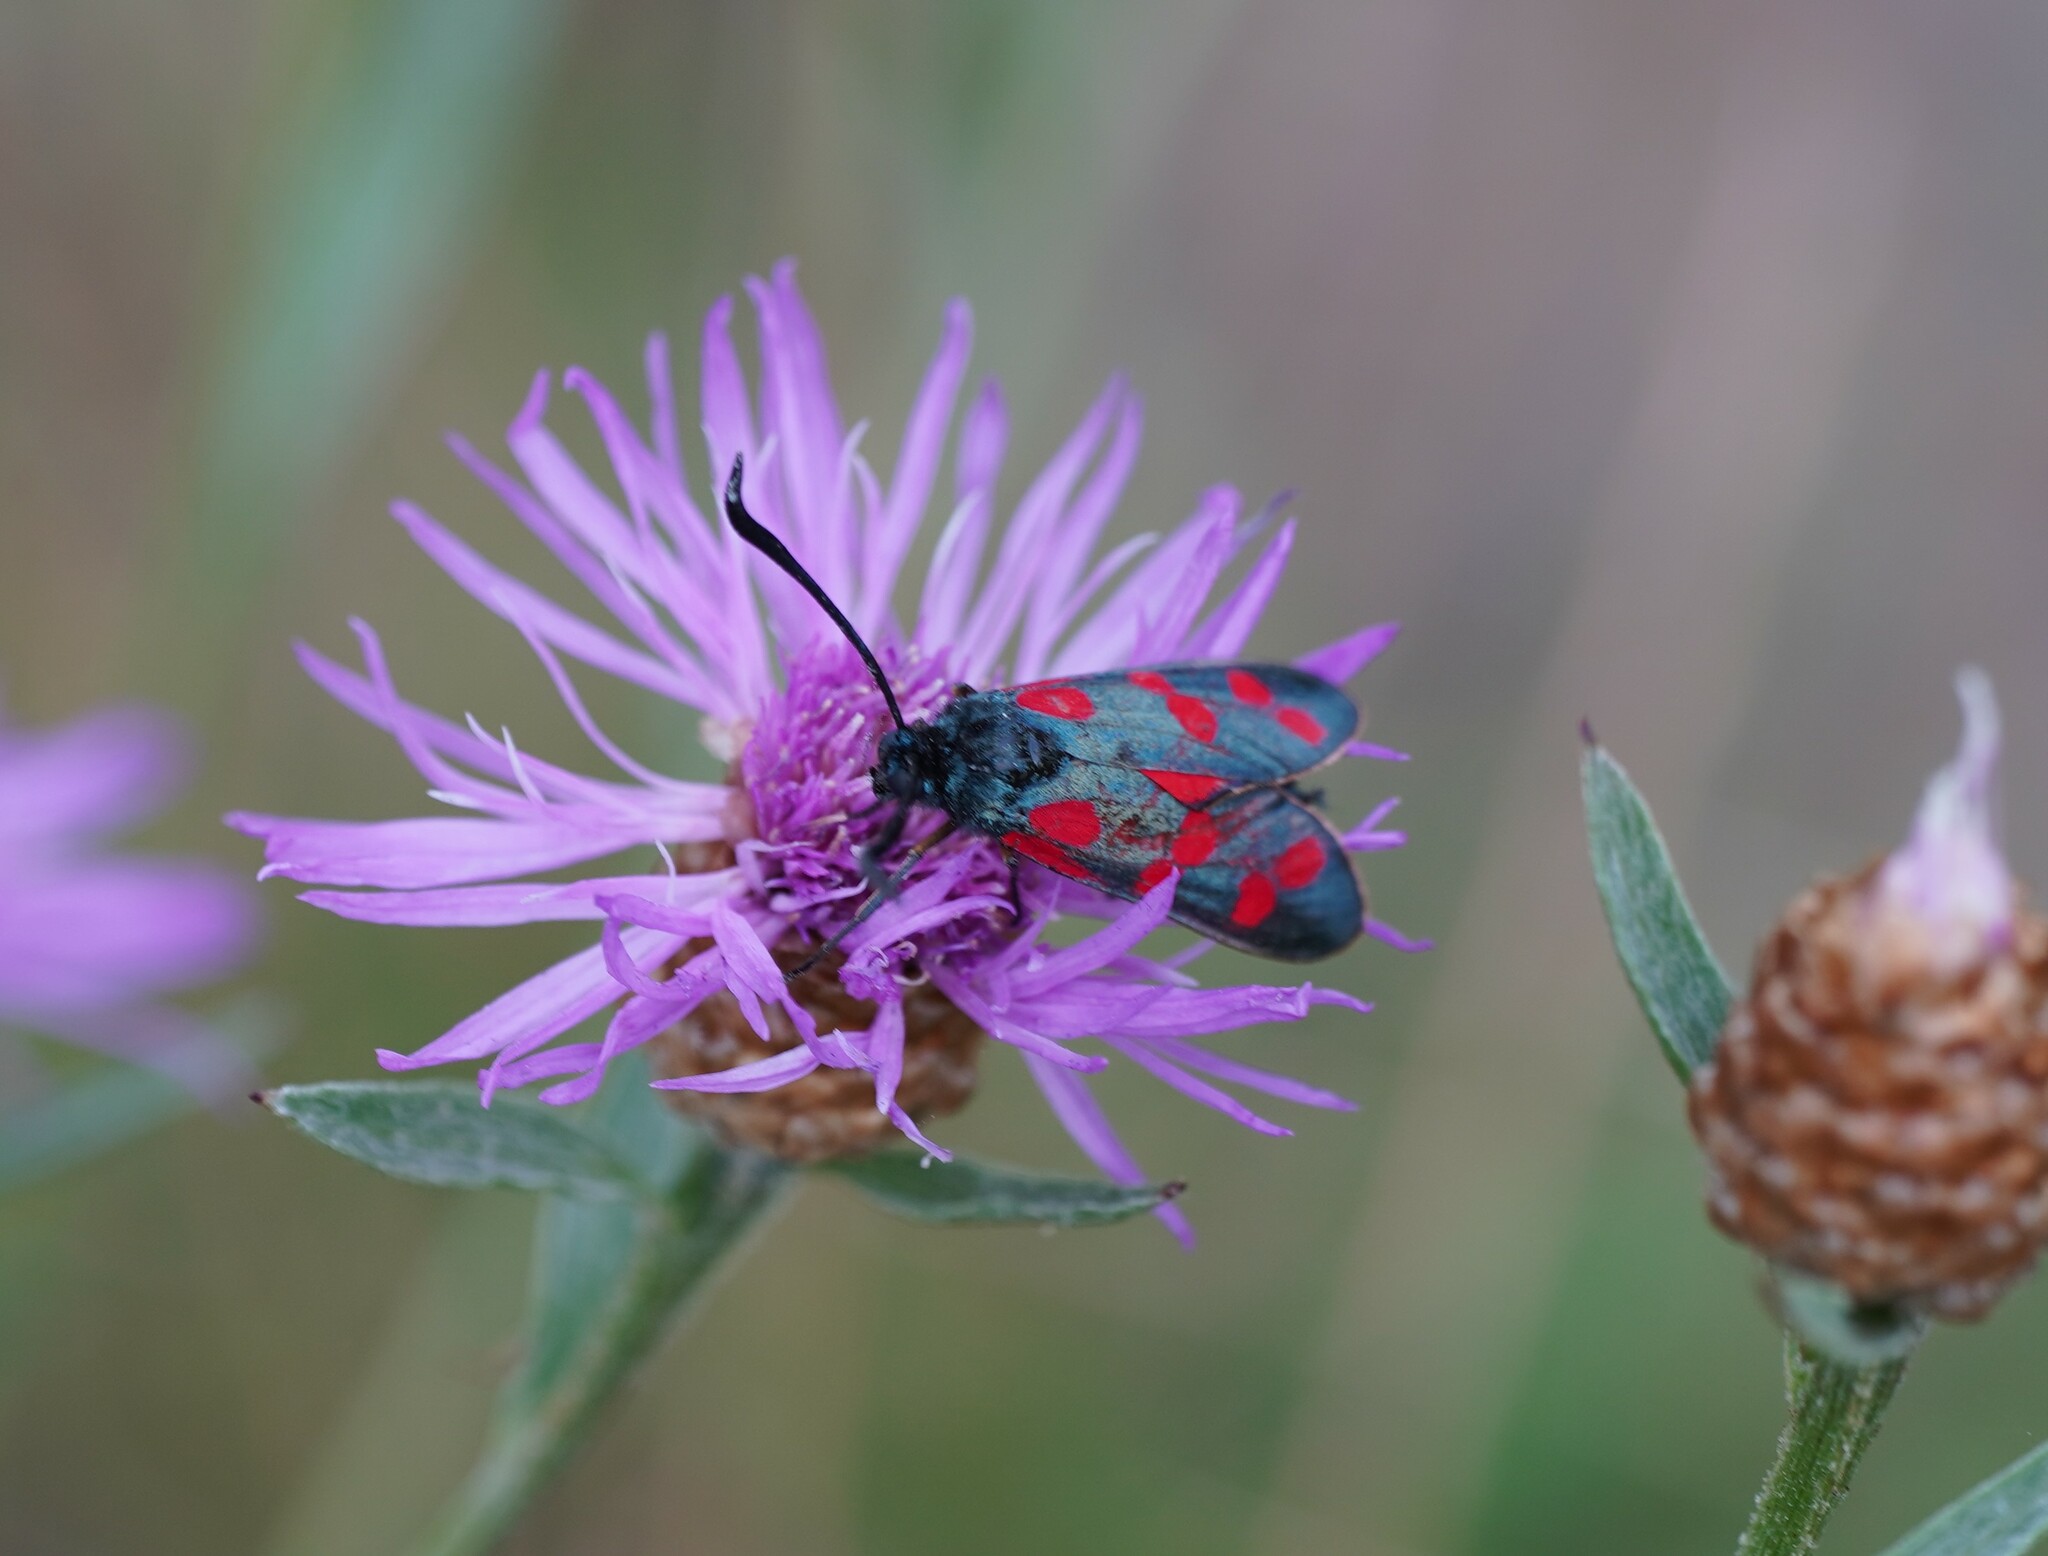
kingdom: Animalia
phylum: Arthropoda
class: Insecta
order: Lepidoptera
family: Zygaenidae
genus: Zygaena
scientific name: Zygaena filipendulae
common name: Six-spot burnet
